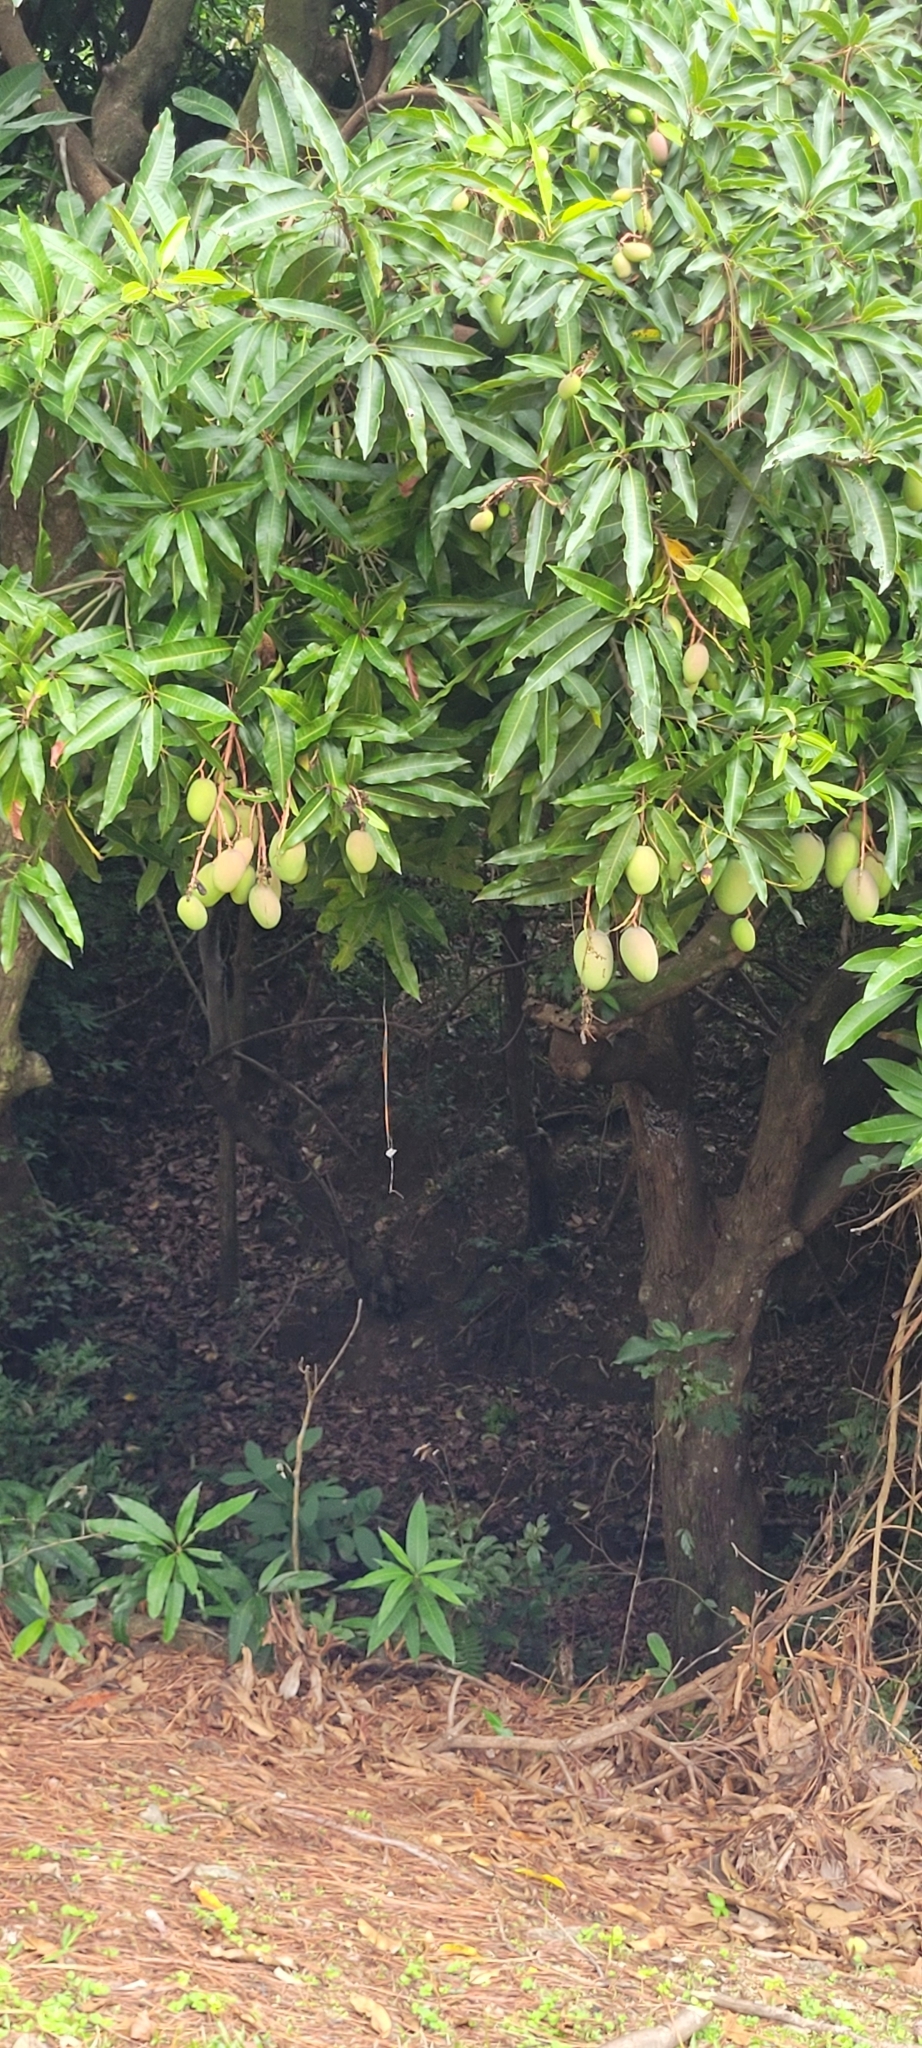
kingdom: Plantae
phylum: Tracheophyta
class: Magnoliopsida
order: Sapindales
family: Anacardiaceae
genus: Mangifera
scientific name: Mangifera indica
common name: Mango
